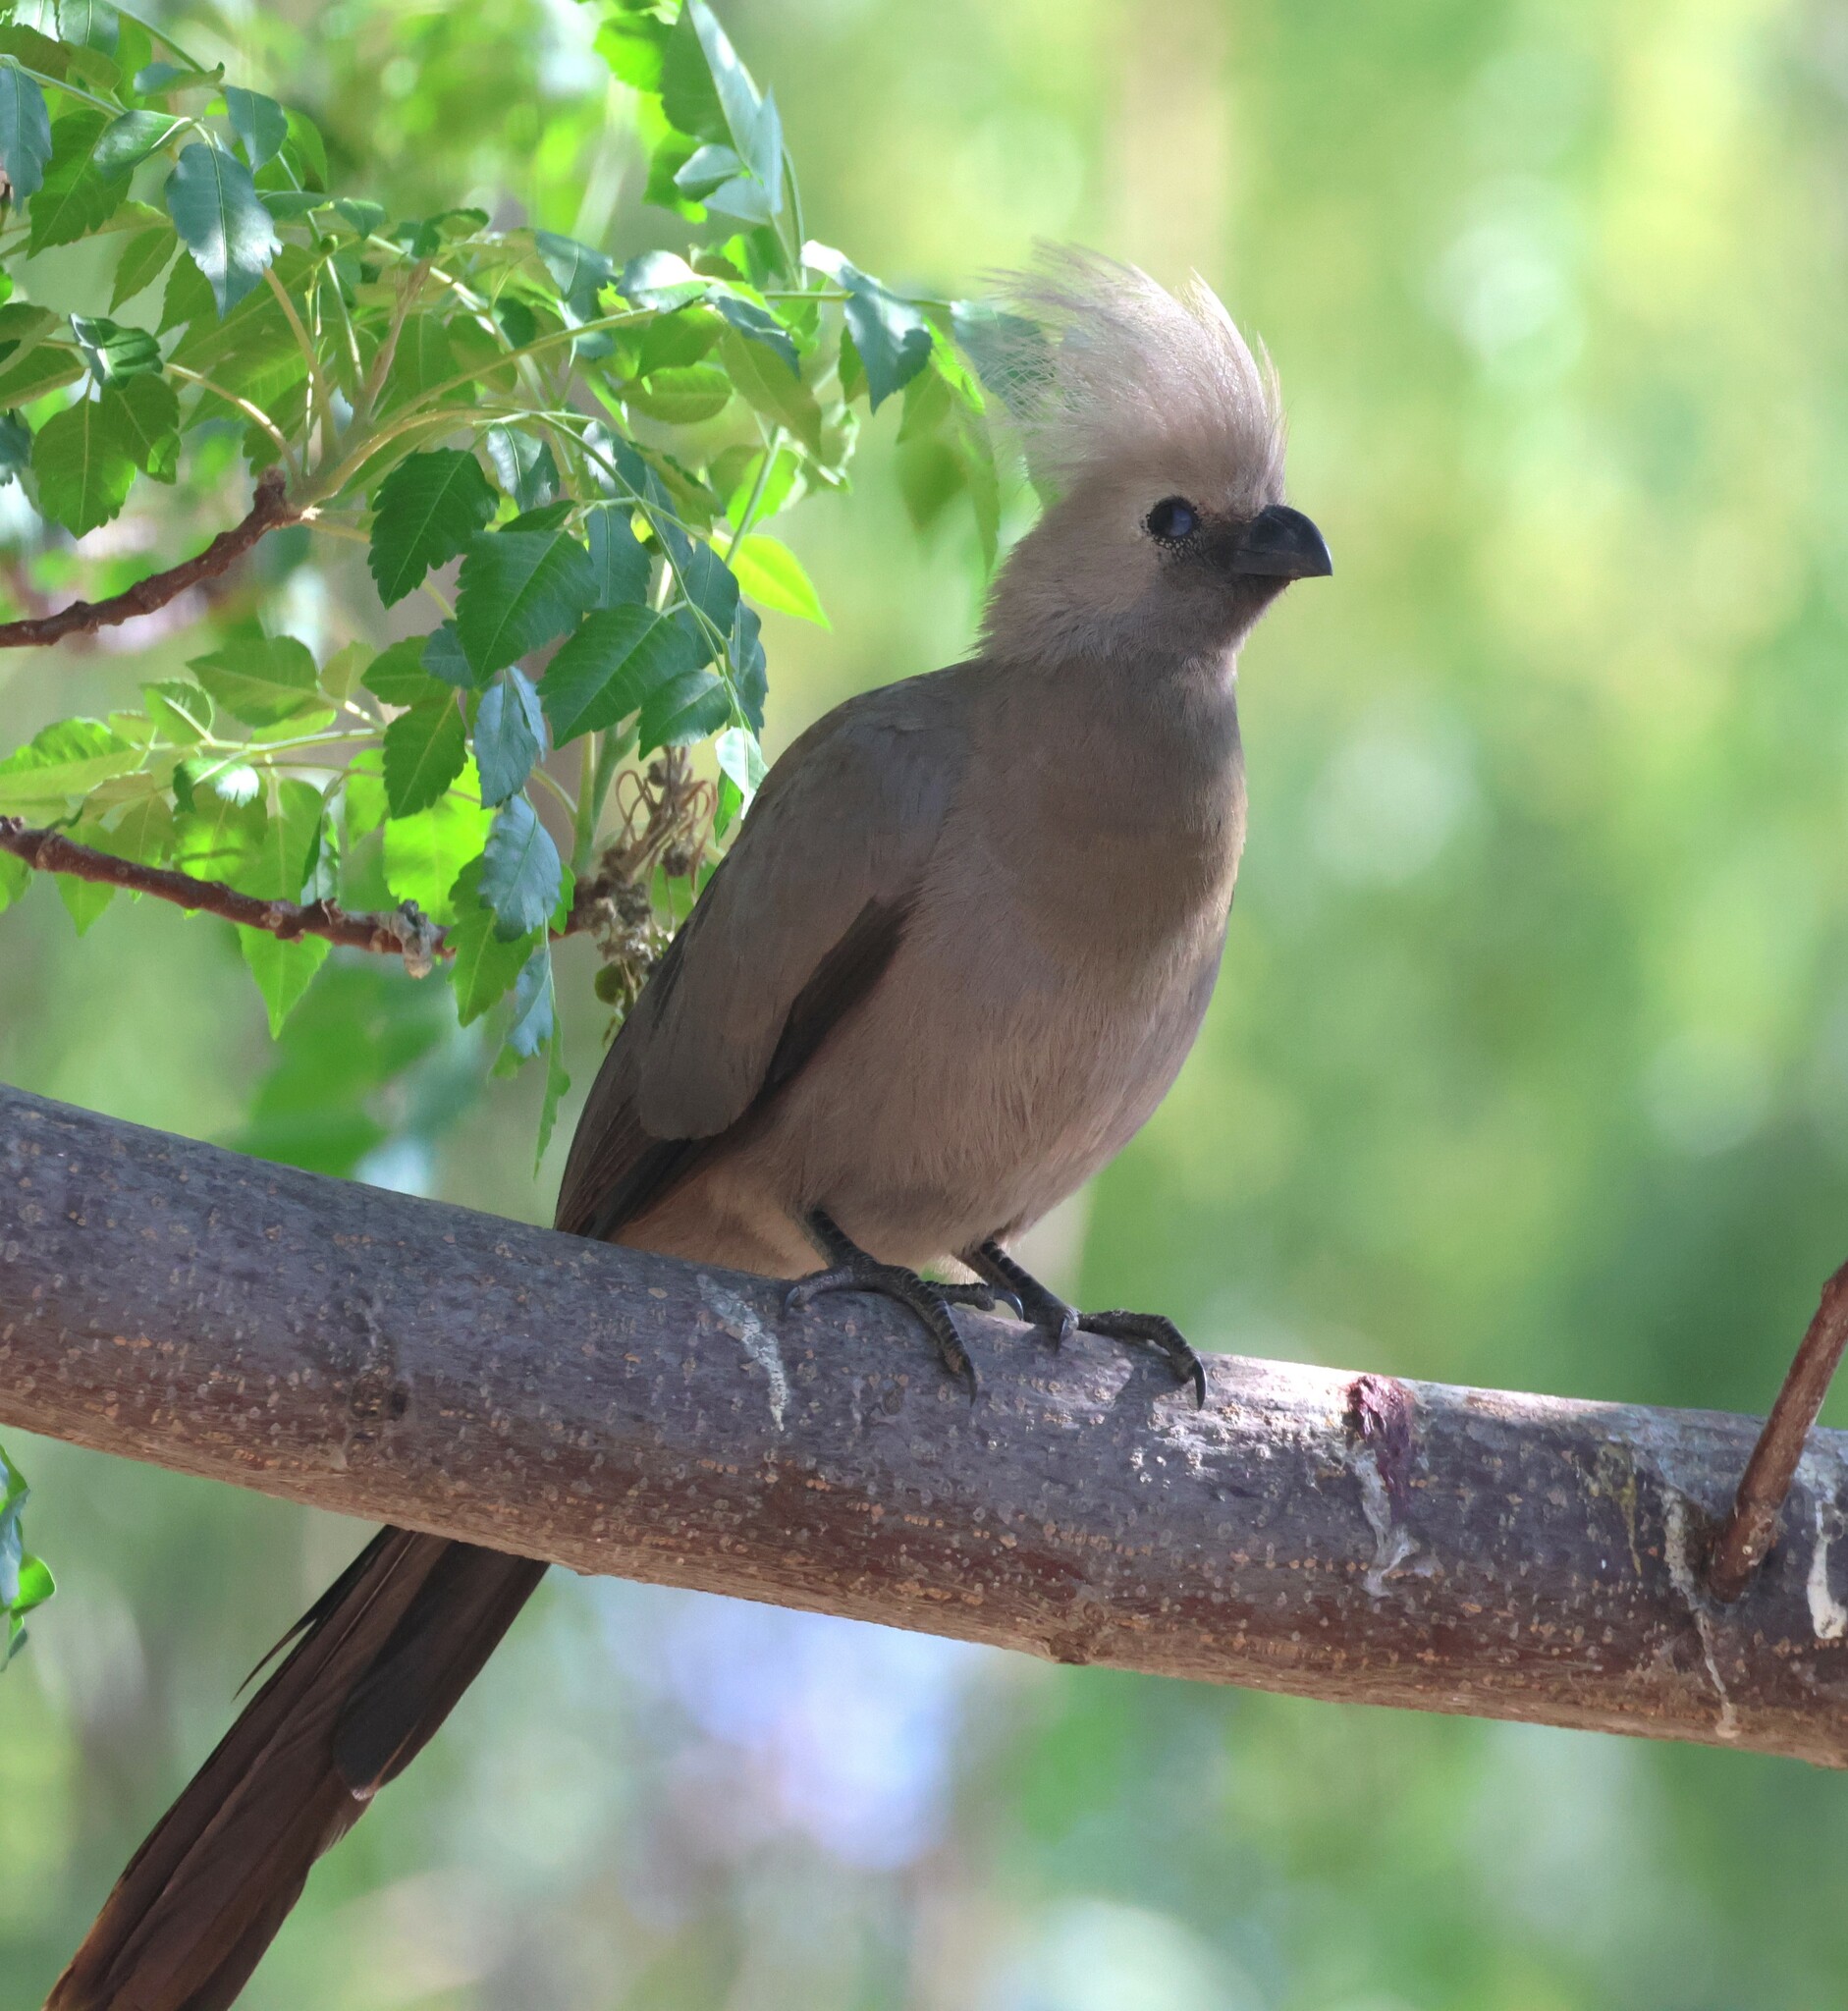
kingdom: Animalia
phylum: Chordata
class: Aves
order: Musophagiformes
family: Musophagidae
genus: Corythaixoides
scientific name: Corythaixoides concolor
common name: Grey go-away-bird
